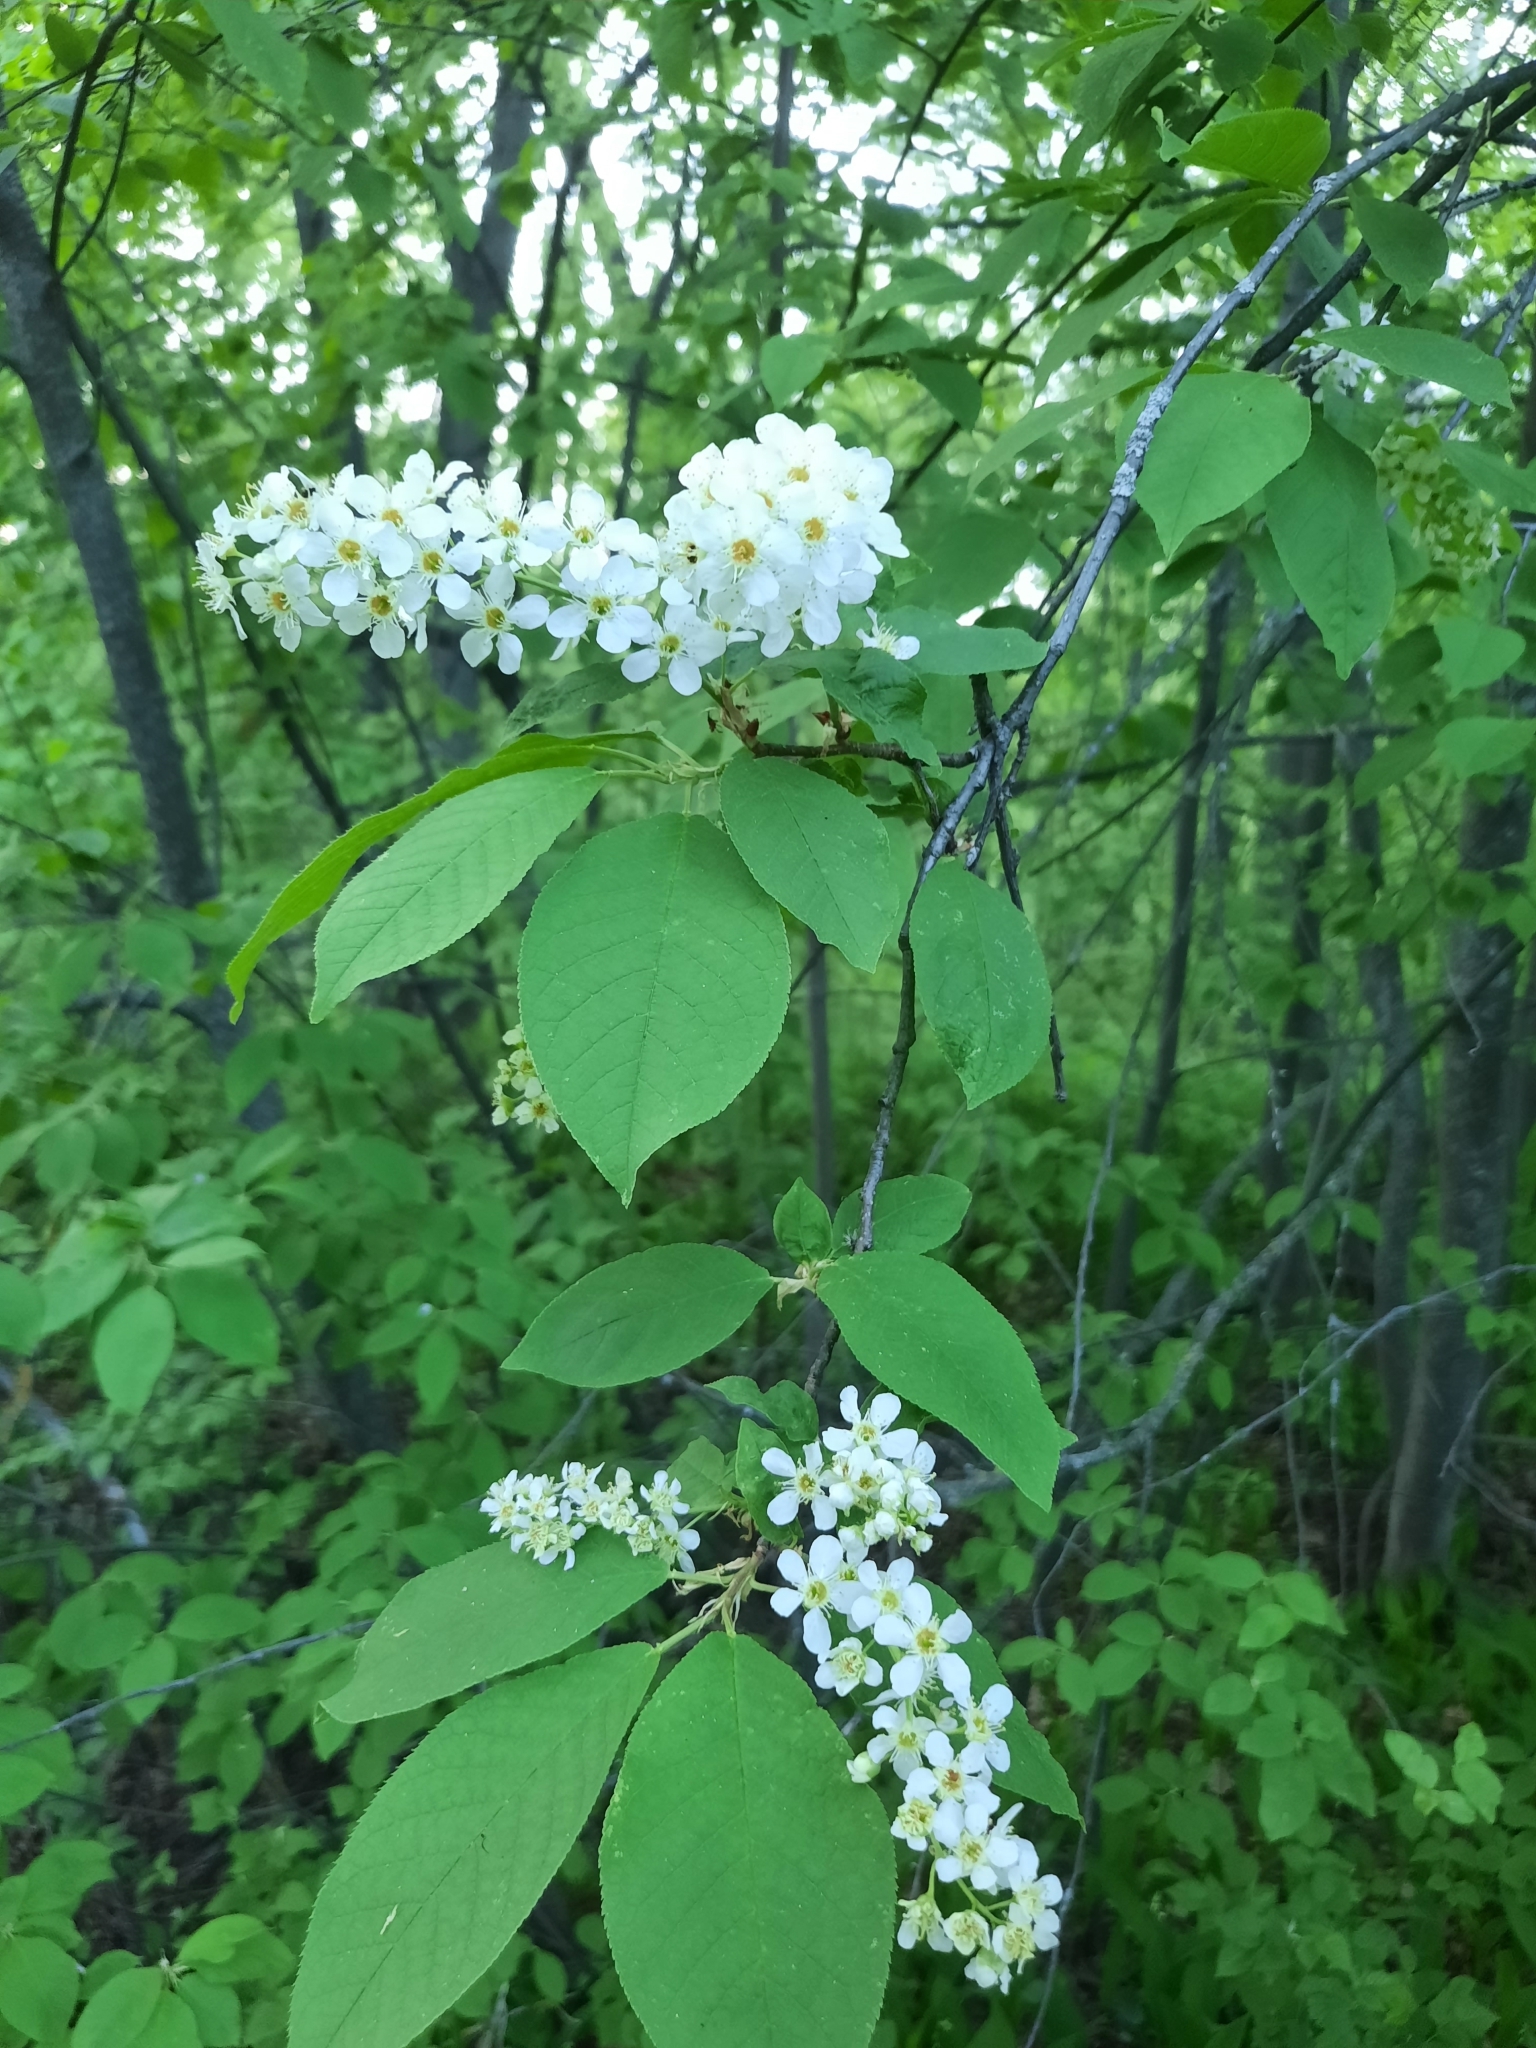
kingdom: Plantae
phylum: Tracheophyta
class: Magnoliopsida
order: Rosales
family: Rosaceae
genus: Prunus
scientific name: Prunus padus
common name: Bird cherry
